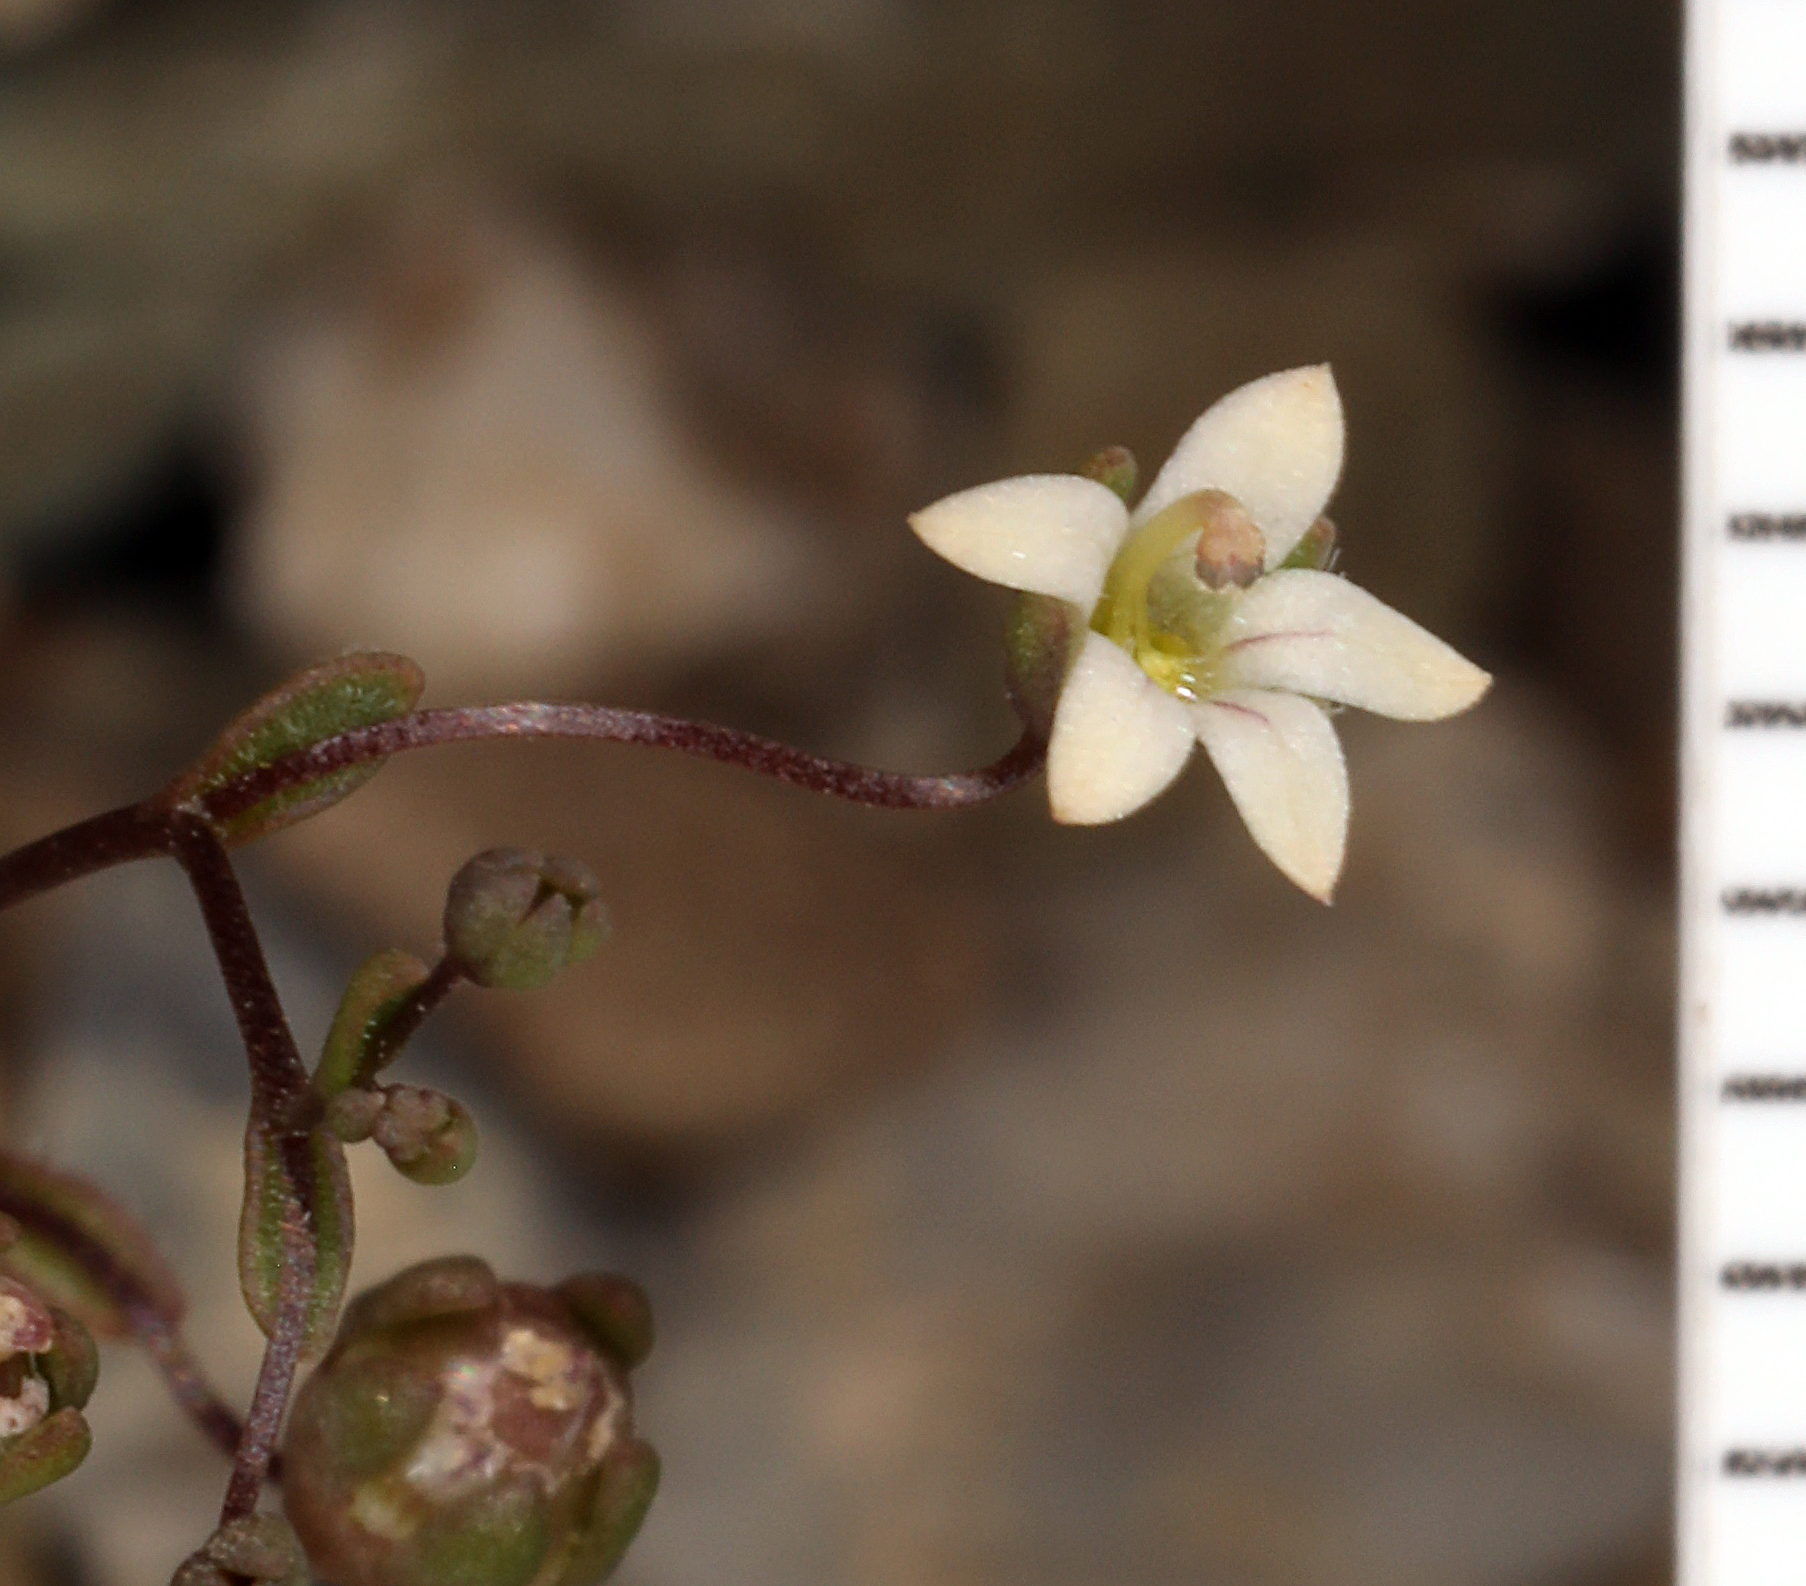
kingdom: Plantae
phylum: Tracheophyta
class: Magnoliopsida
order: Asterales
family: Campanulaceae
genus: Nemacladus
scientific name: Nemacladus inyoensis
